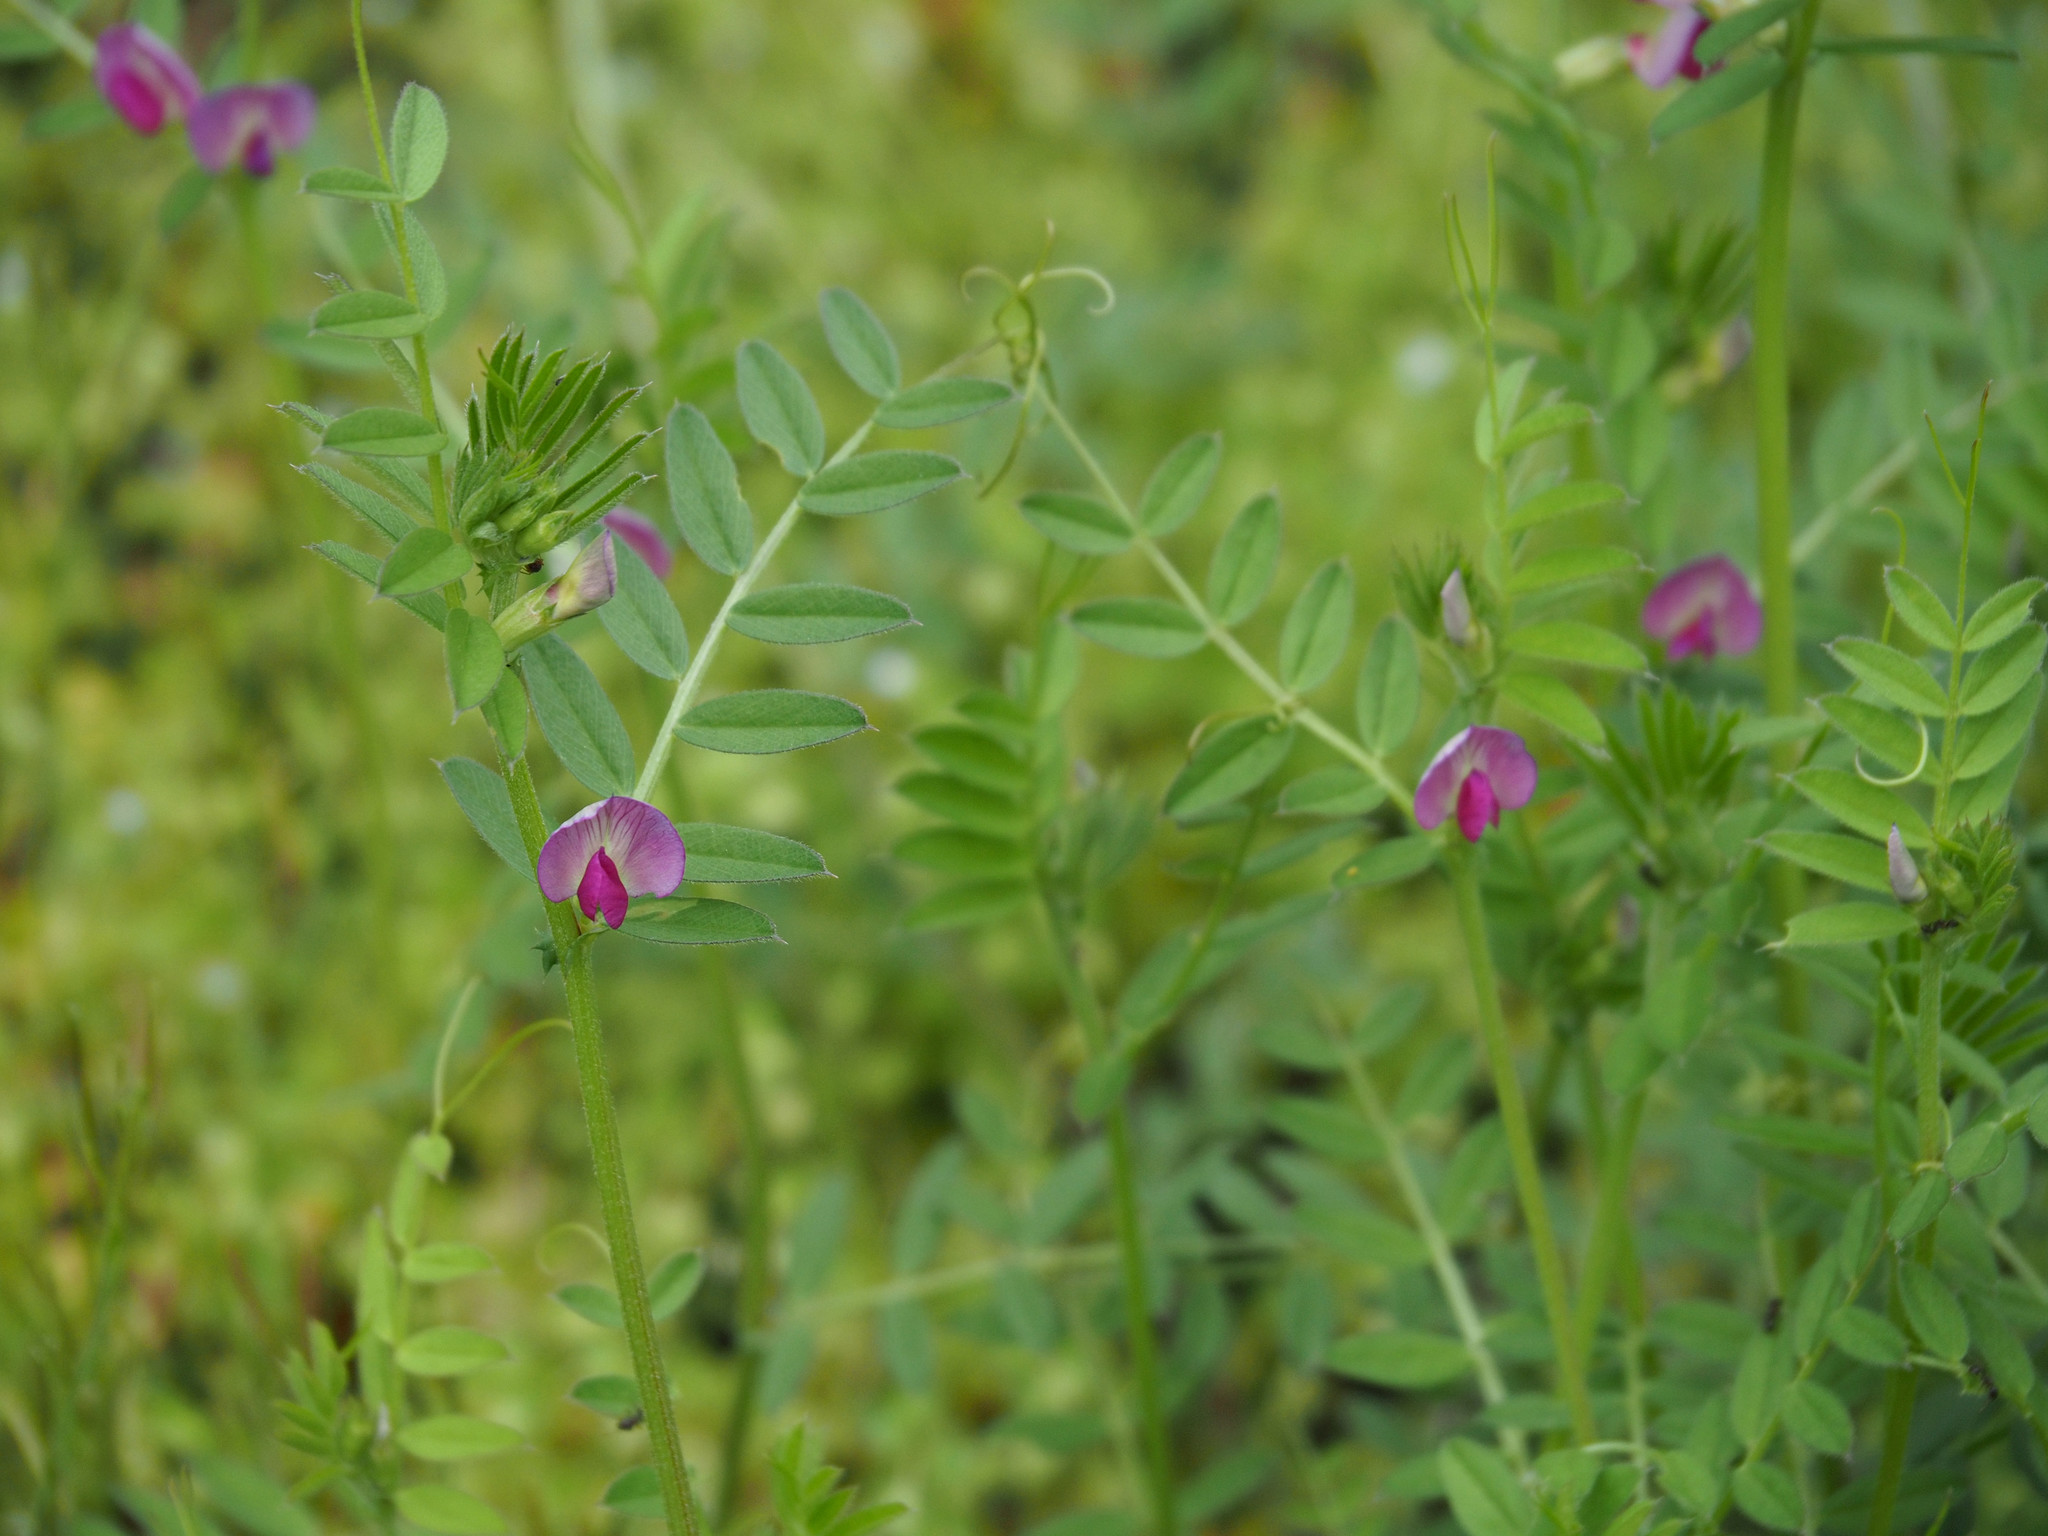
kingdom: Plantae
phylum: Tracheophyta
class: Magnoliopsida
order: Fabales
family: Fabaceae
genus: Vicia
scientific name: Vicia sativa
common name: Garden vetch
